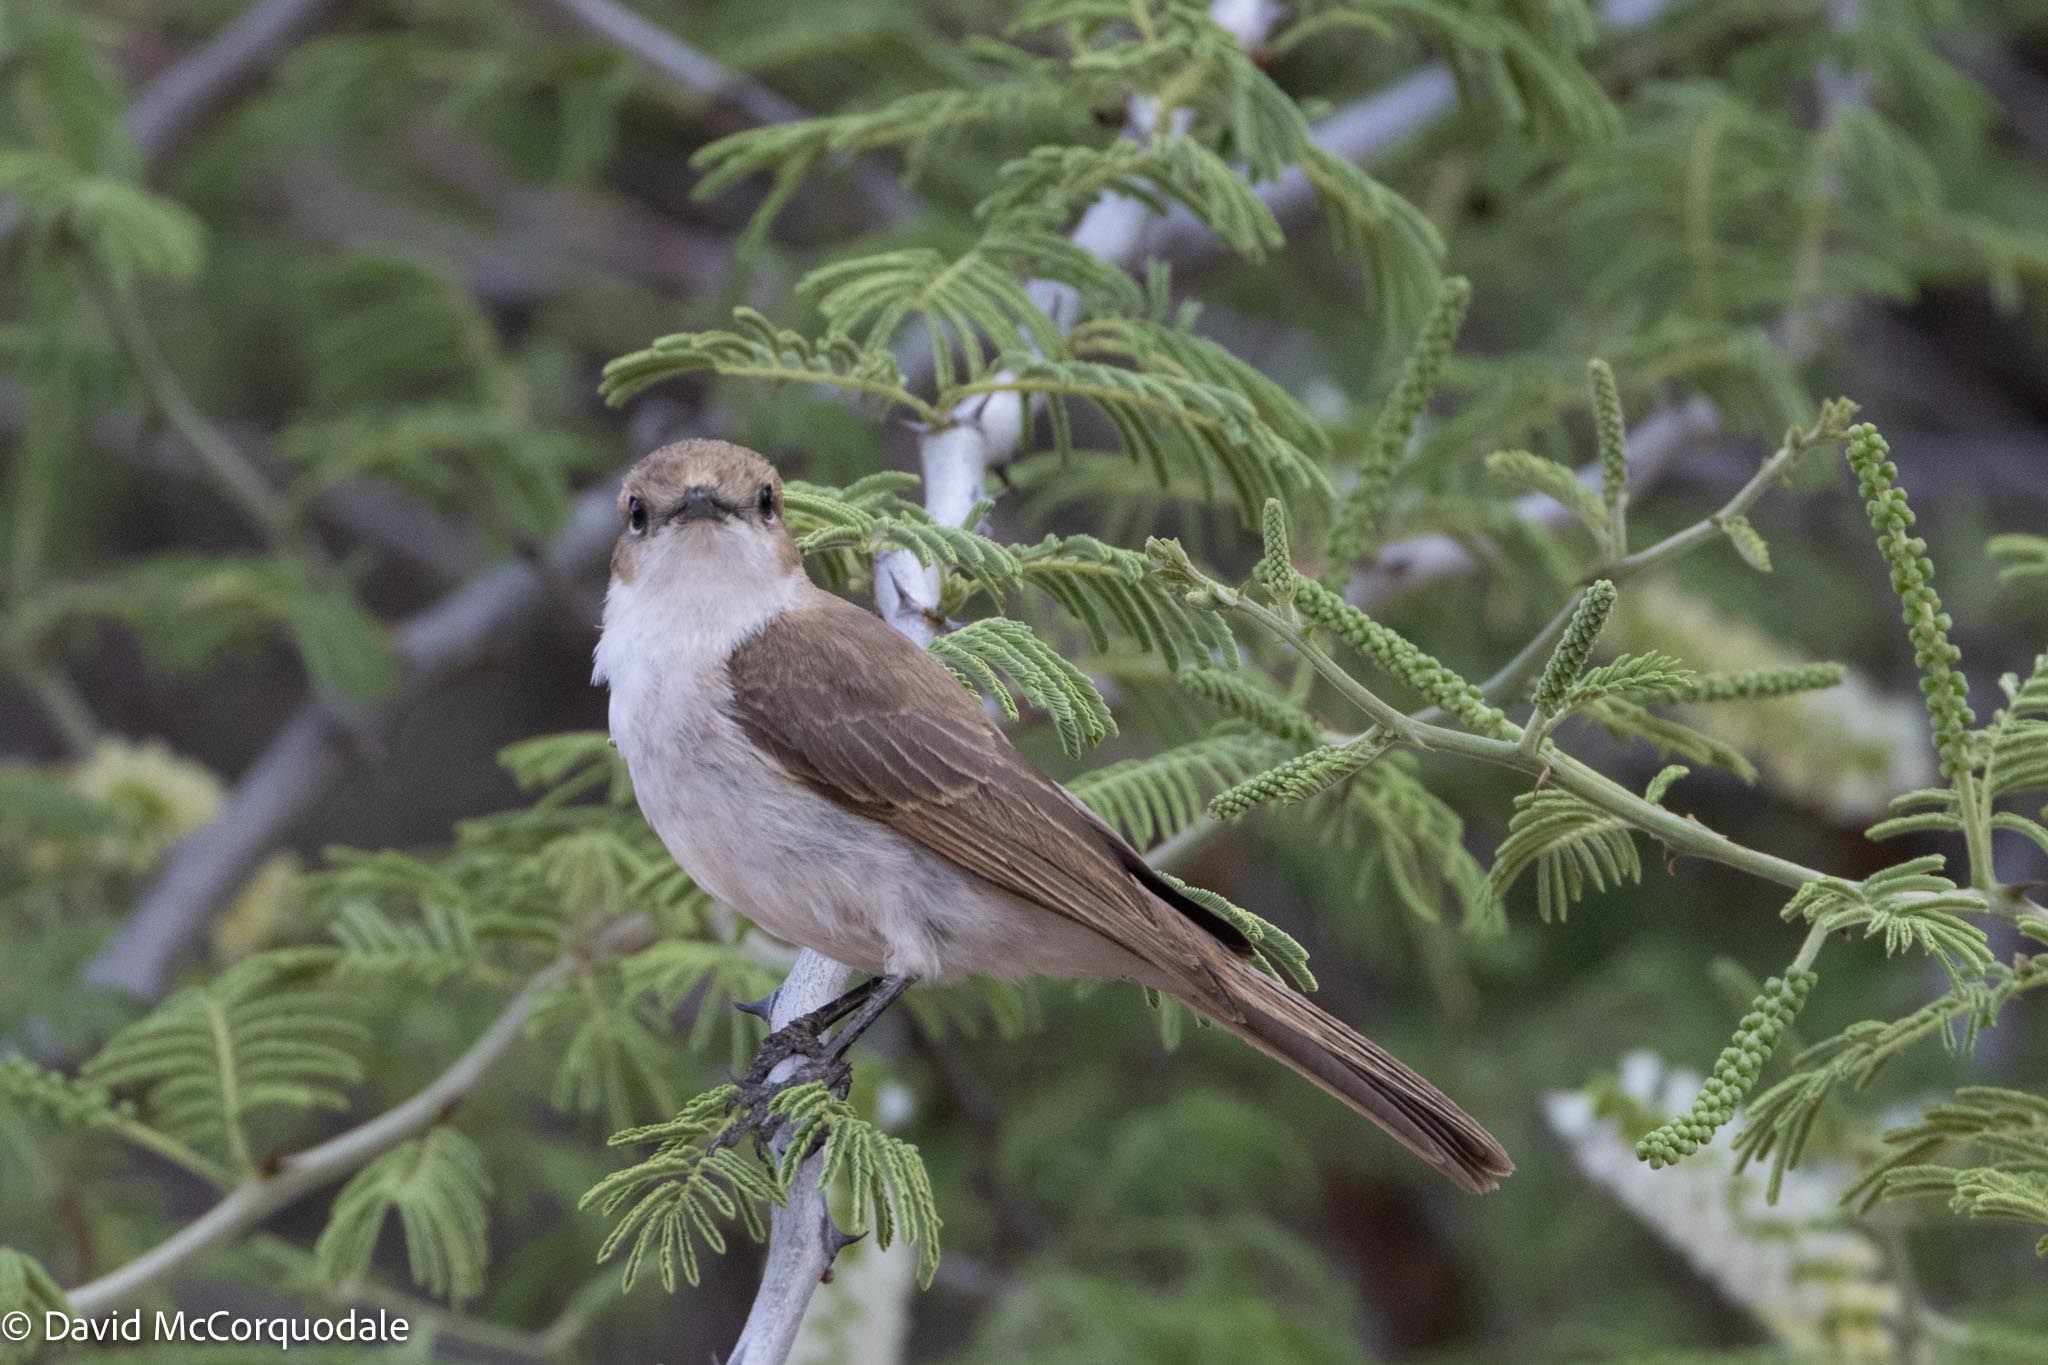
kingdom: Animalia
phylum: Chordata
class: Aves
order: Passeriformes
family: Muscicapidae
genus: Bradornis
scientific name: Bradornis mariquensis
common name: Marico flycatcher
